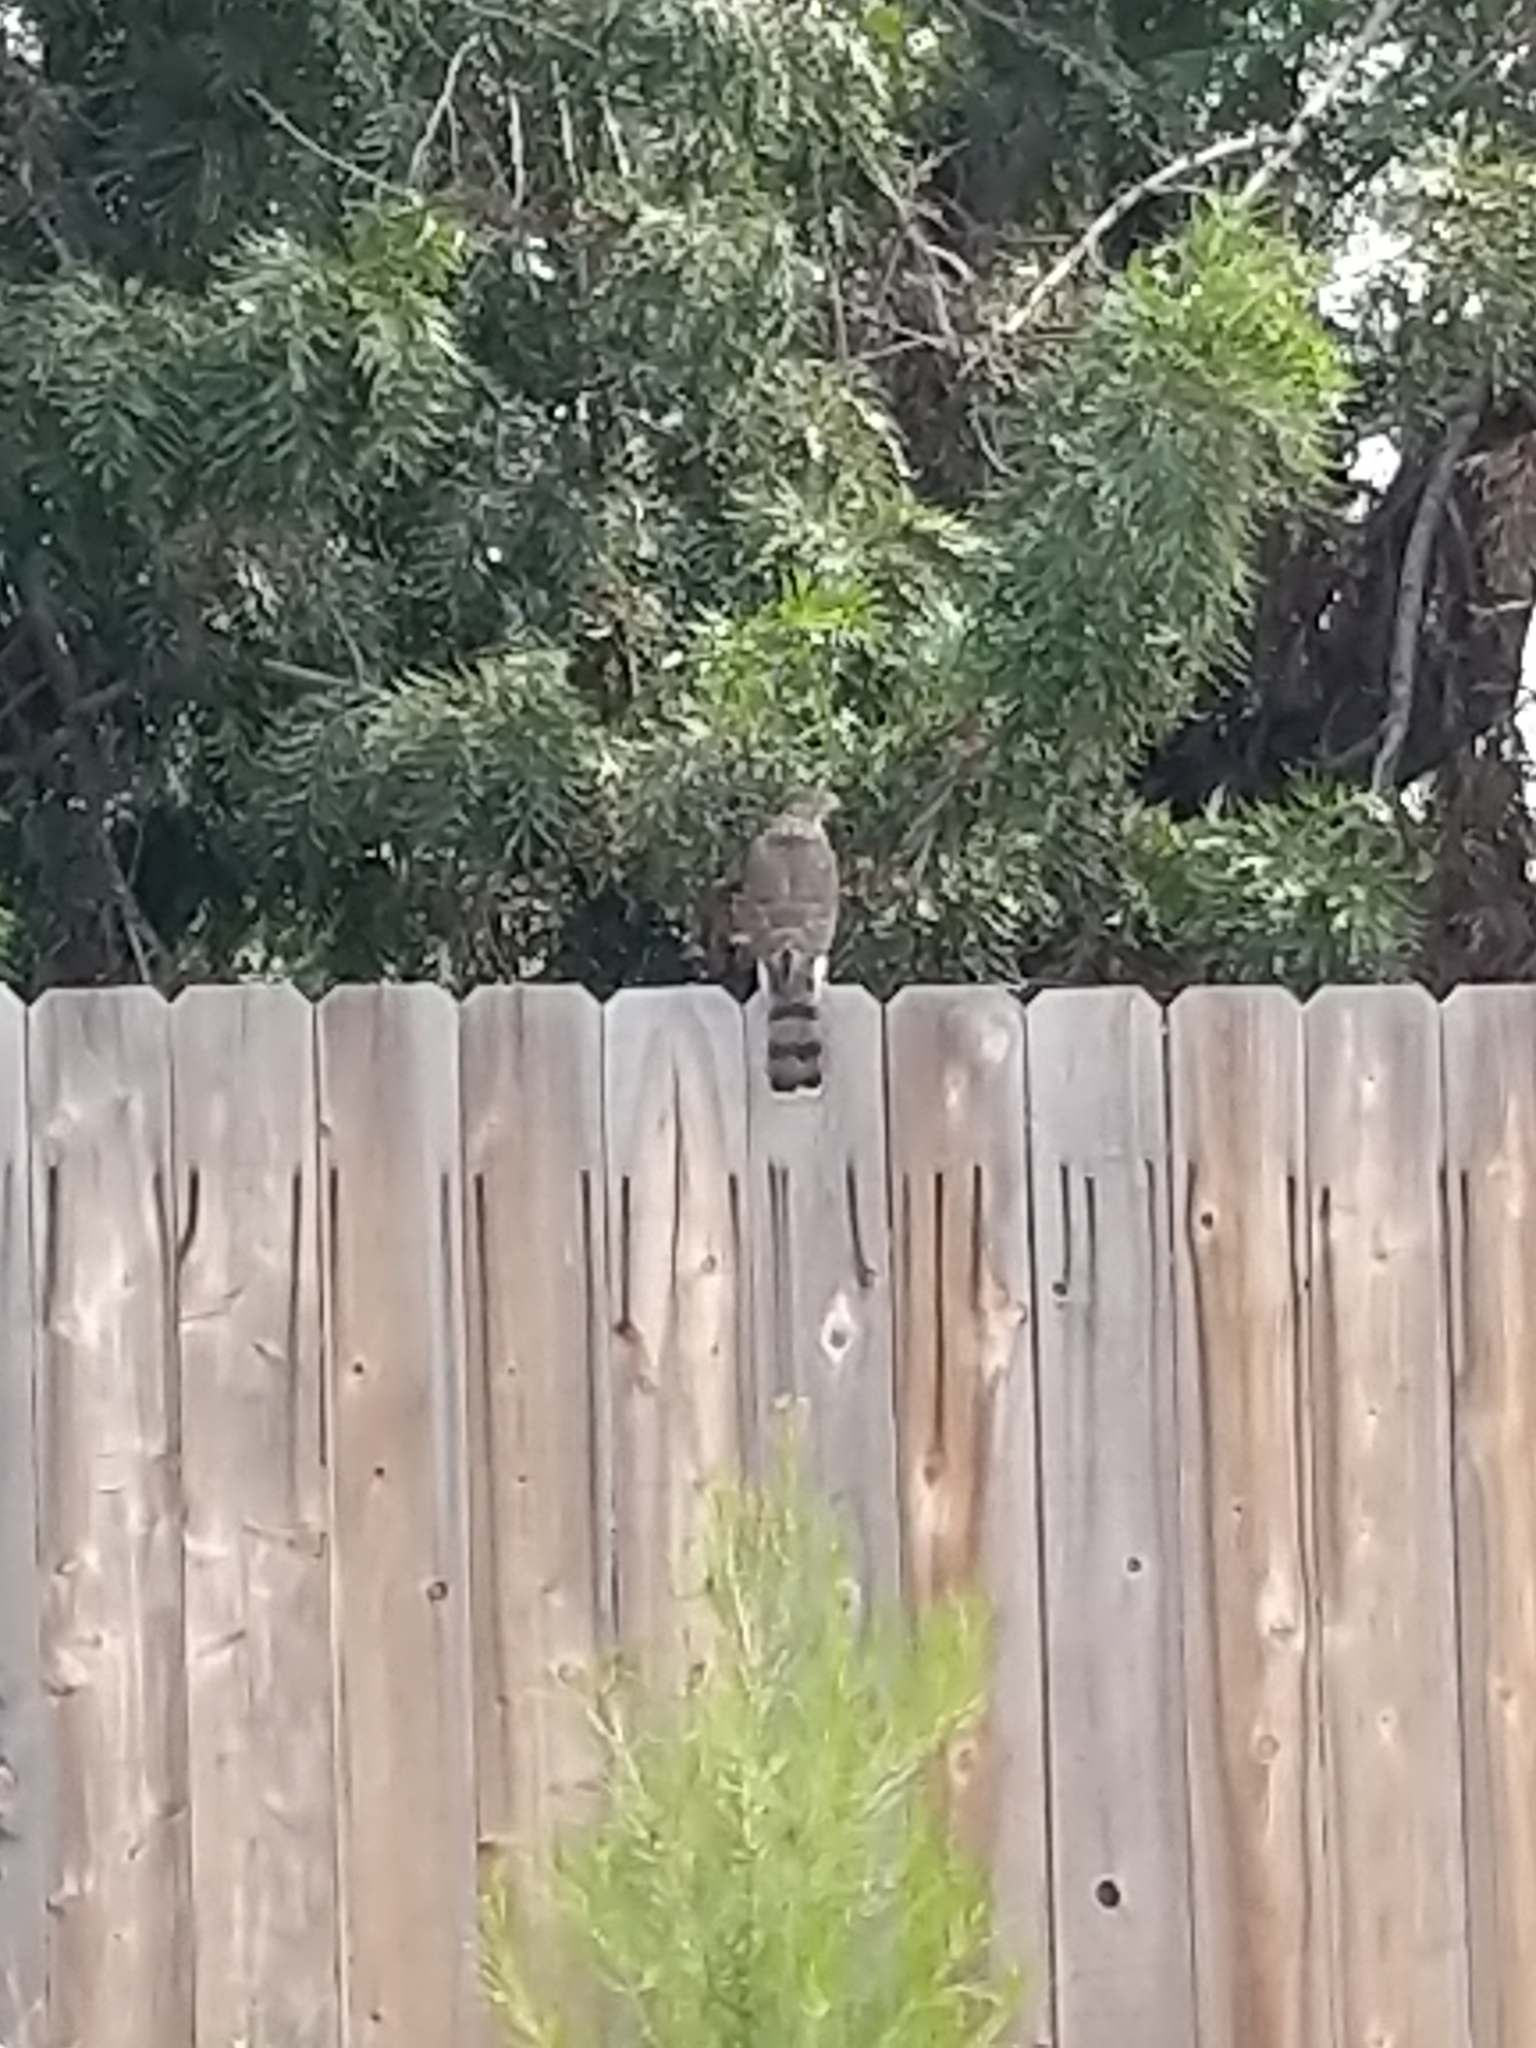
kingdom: Animalia
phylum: Chordata
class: Aves
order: Accipitriformes
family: Accipitridae
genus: Accipiter
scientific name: Accipiter cooperii
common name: Cooper's hawk
